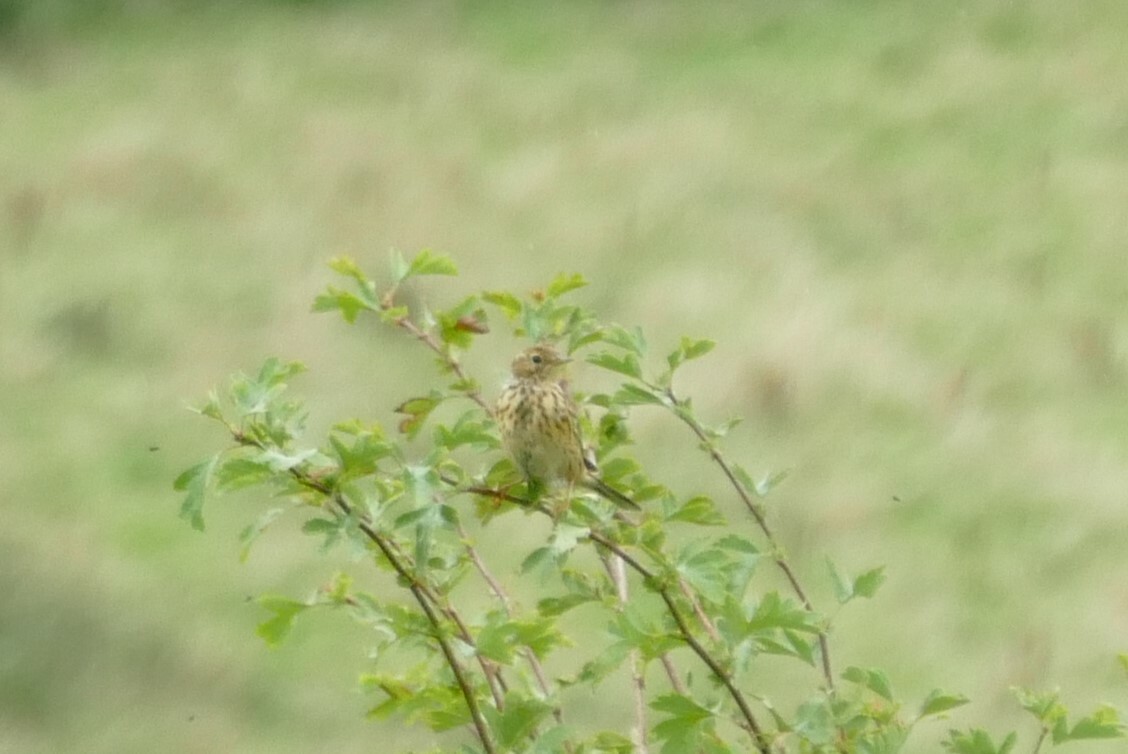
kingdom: Animalia
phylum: Chordata
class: Aves
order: Passeriformes
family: Motacillidae
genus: Anthus
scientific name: Anthus pratensis
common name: Meadow pipit
